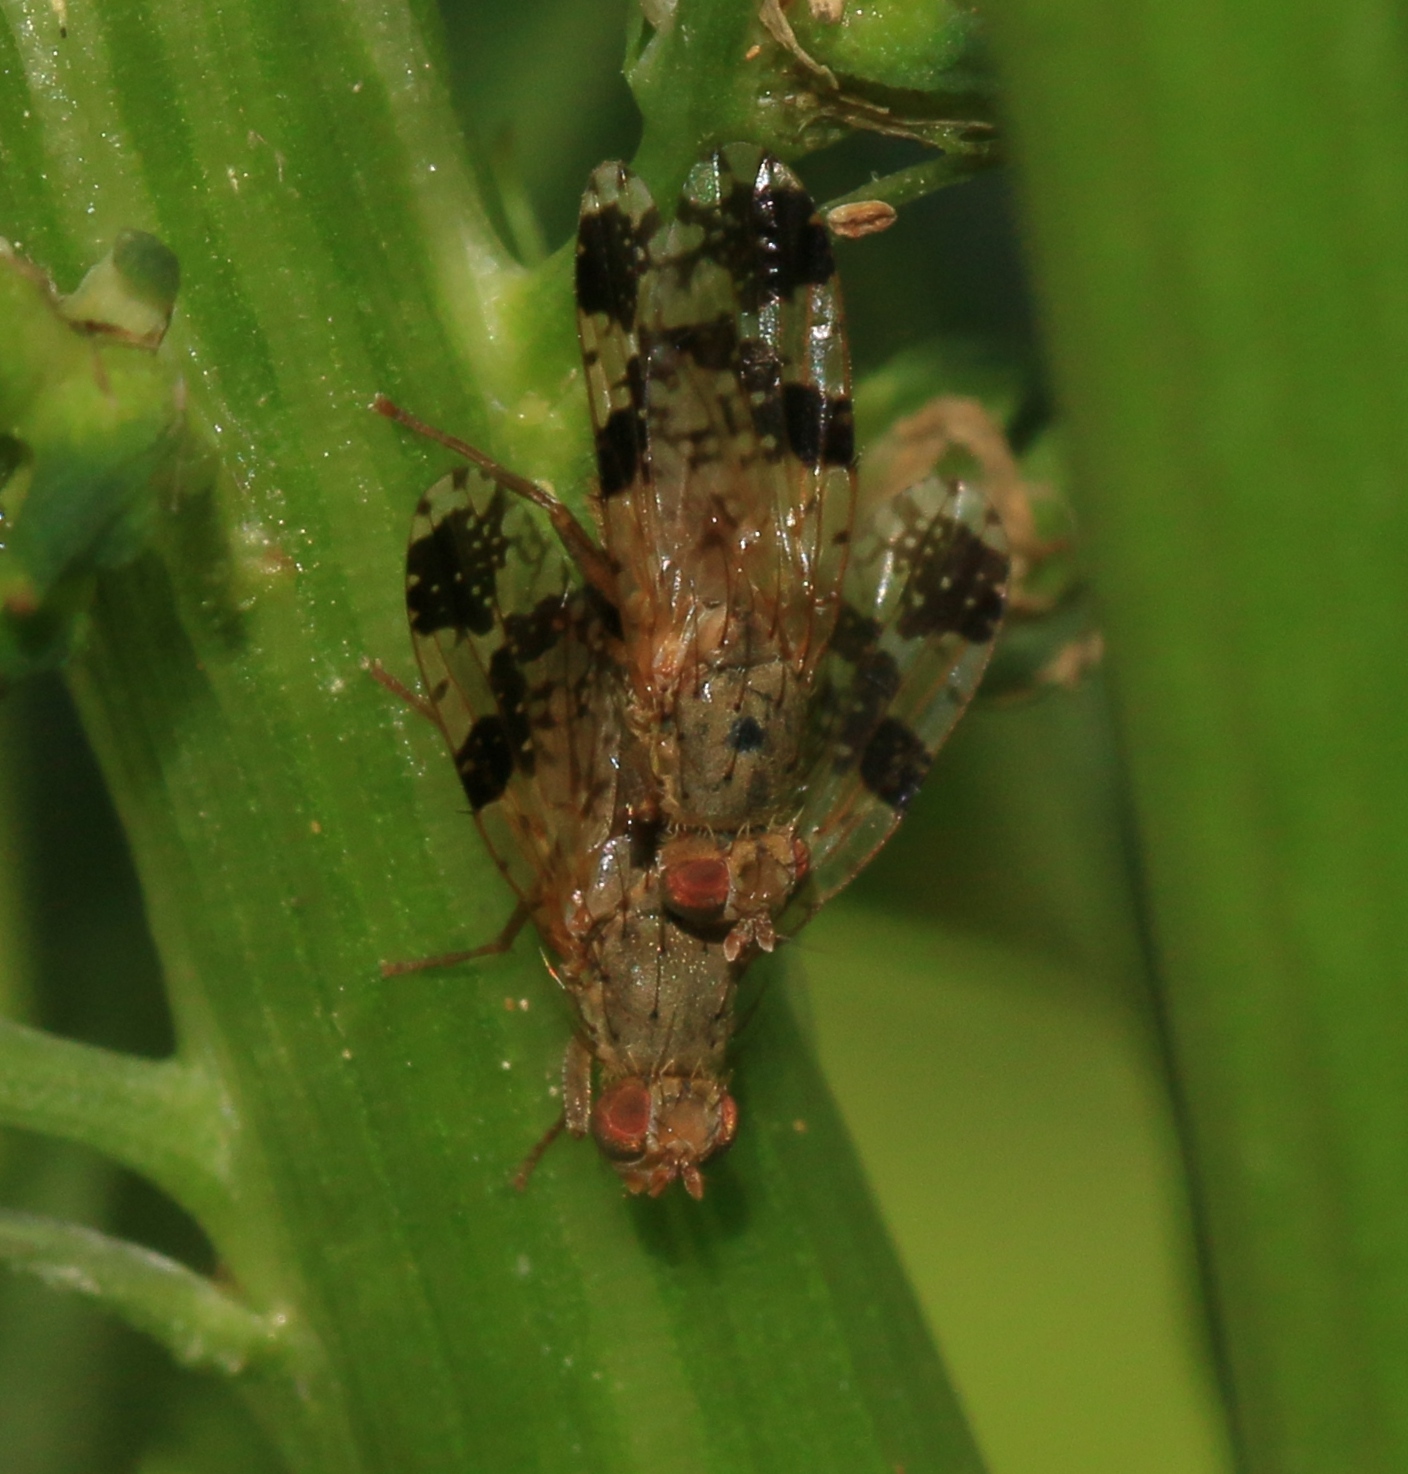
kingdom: Animalia
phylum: Arthropoda
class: Insecta
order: Diptera
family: Tephritidae
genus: Tephritis
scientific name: Tephritis bardanae
